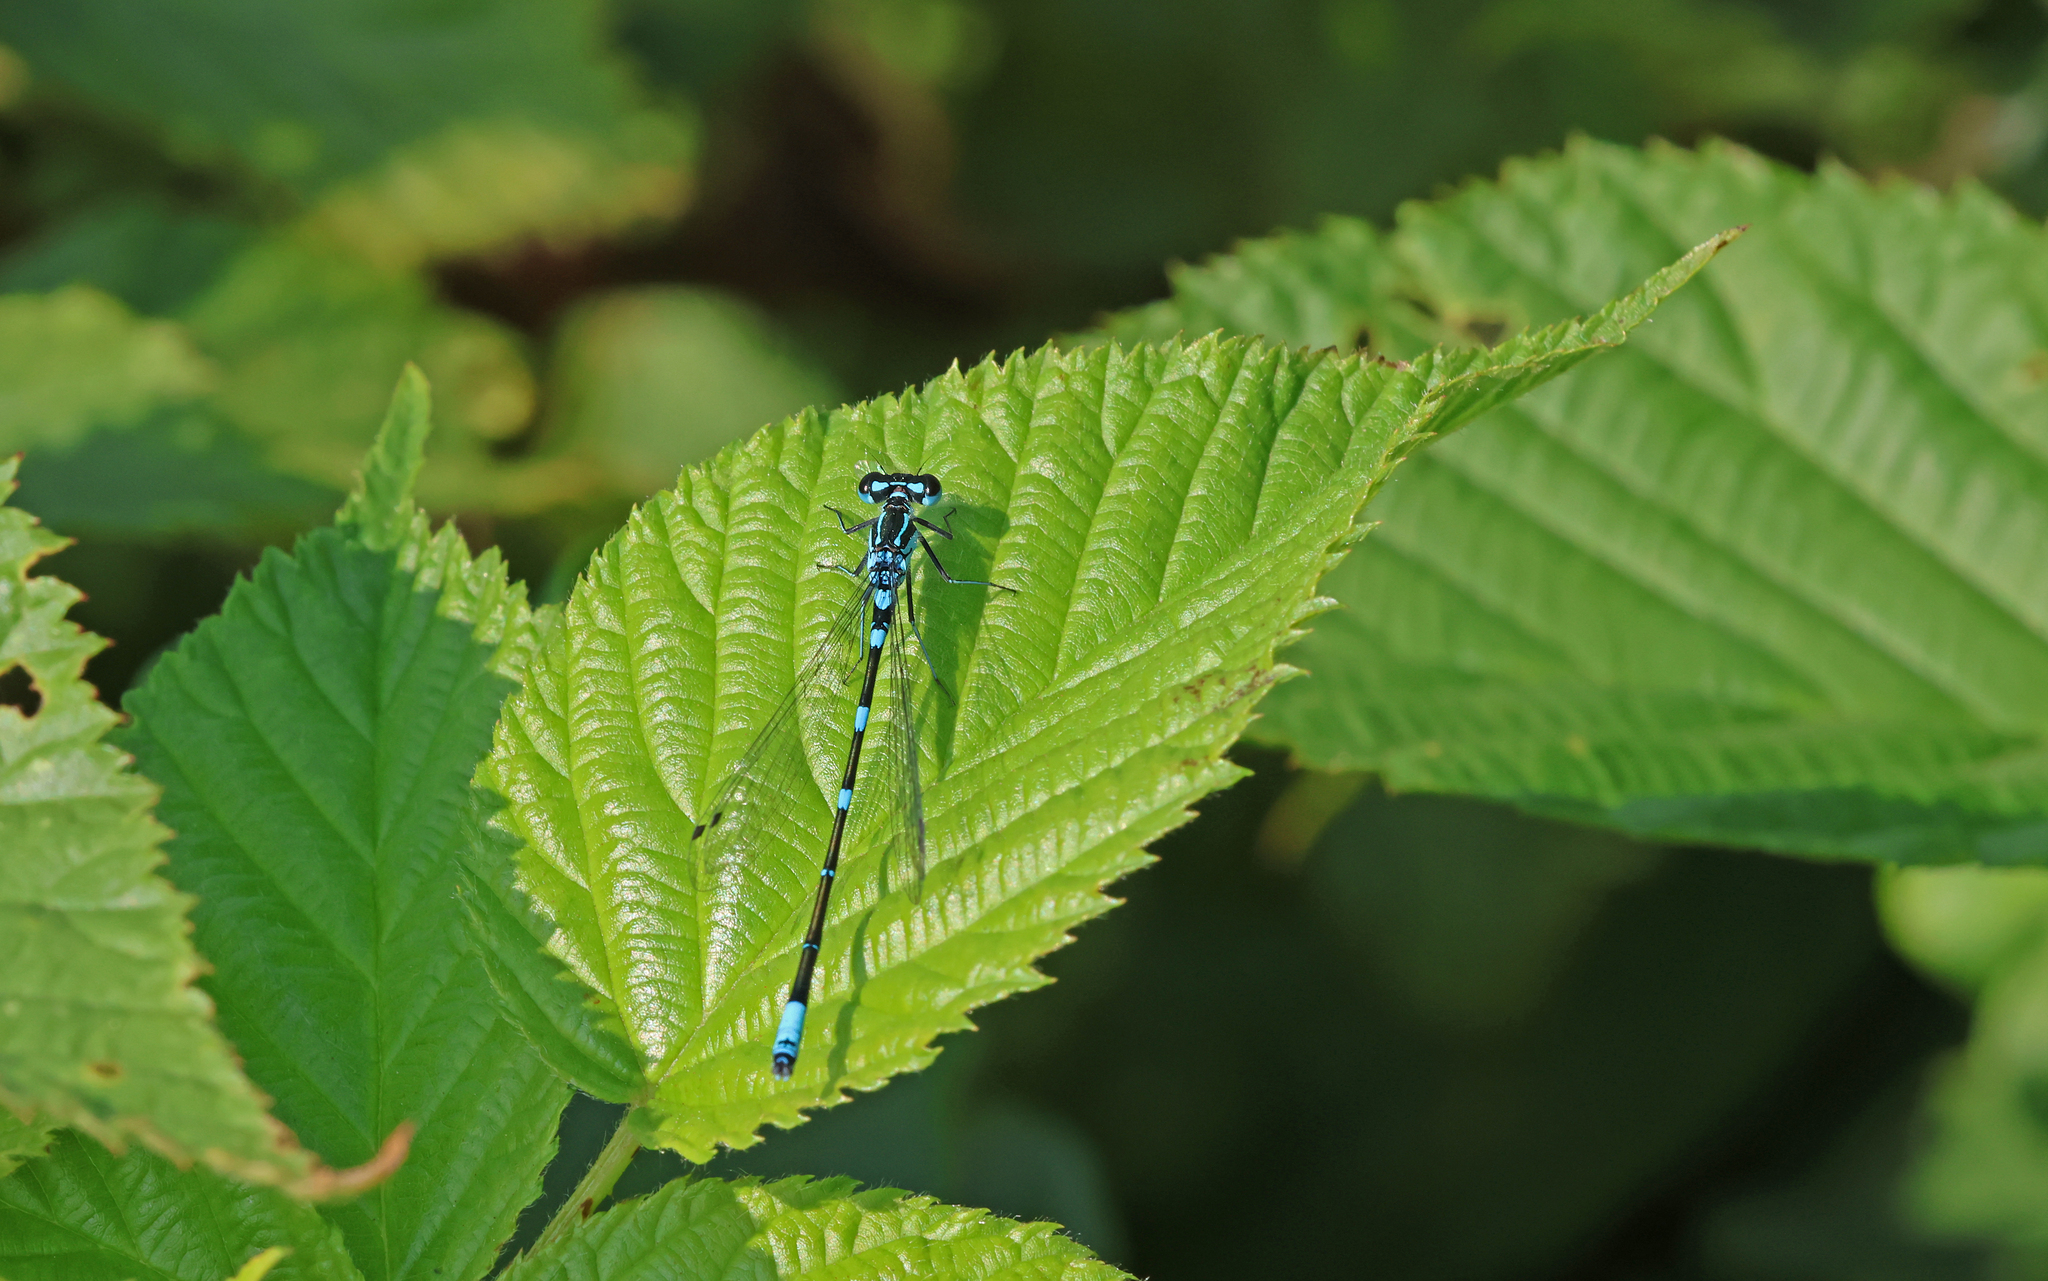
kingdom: Animalia
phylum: Arthropoda
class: Insecta
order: Odonata
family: Coenagrionidae
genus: Coenagrion
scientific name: Coenagrion pulchellum
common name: Variable bluet
